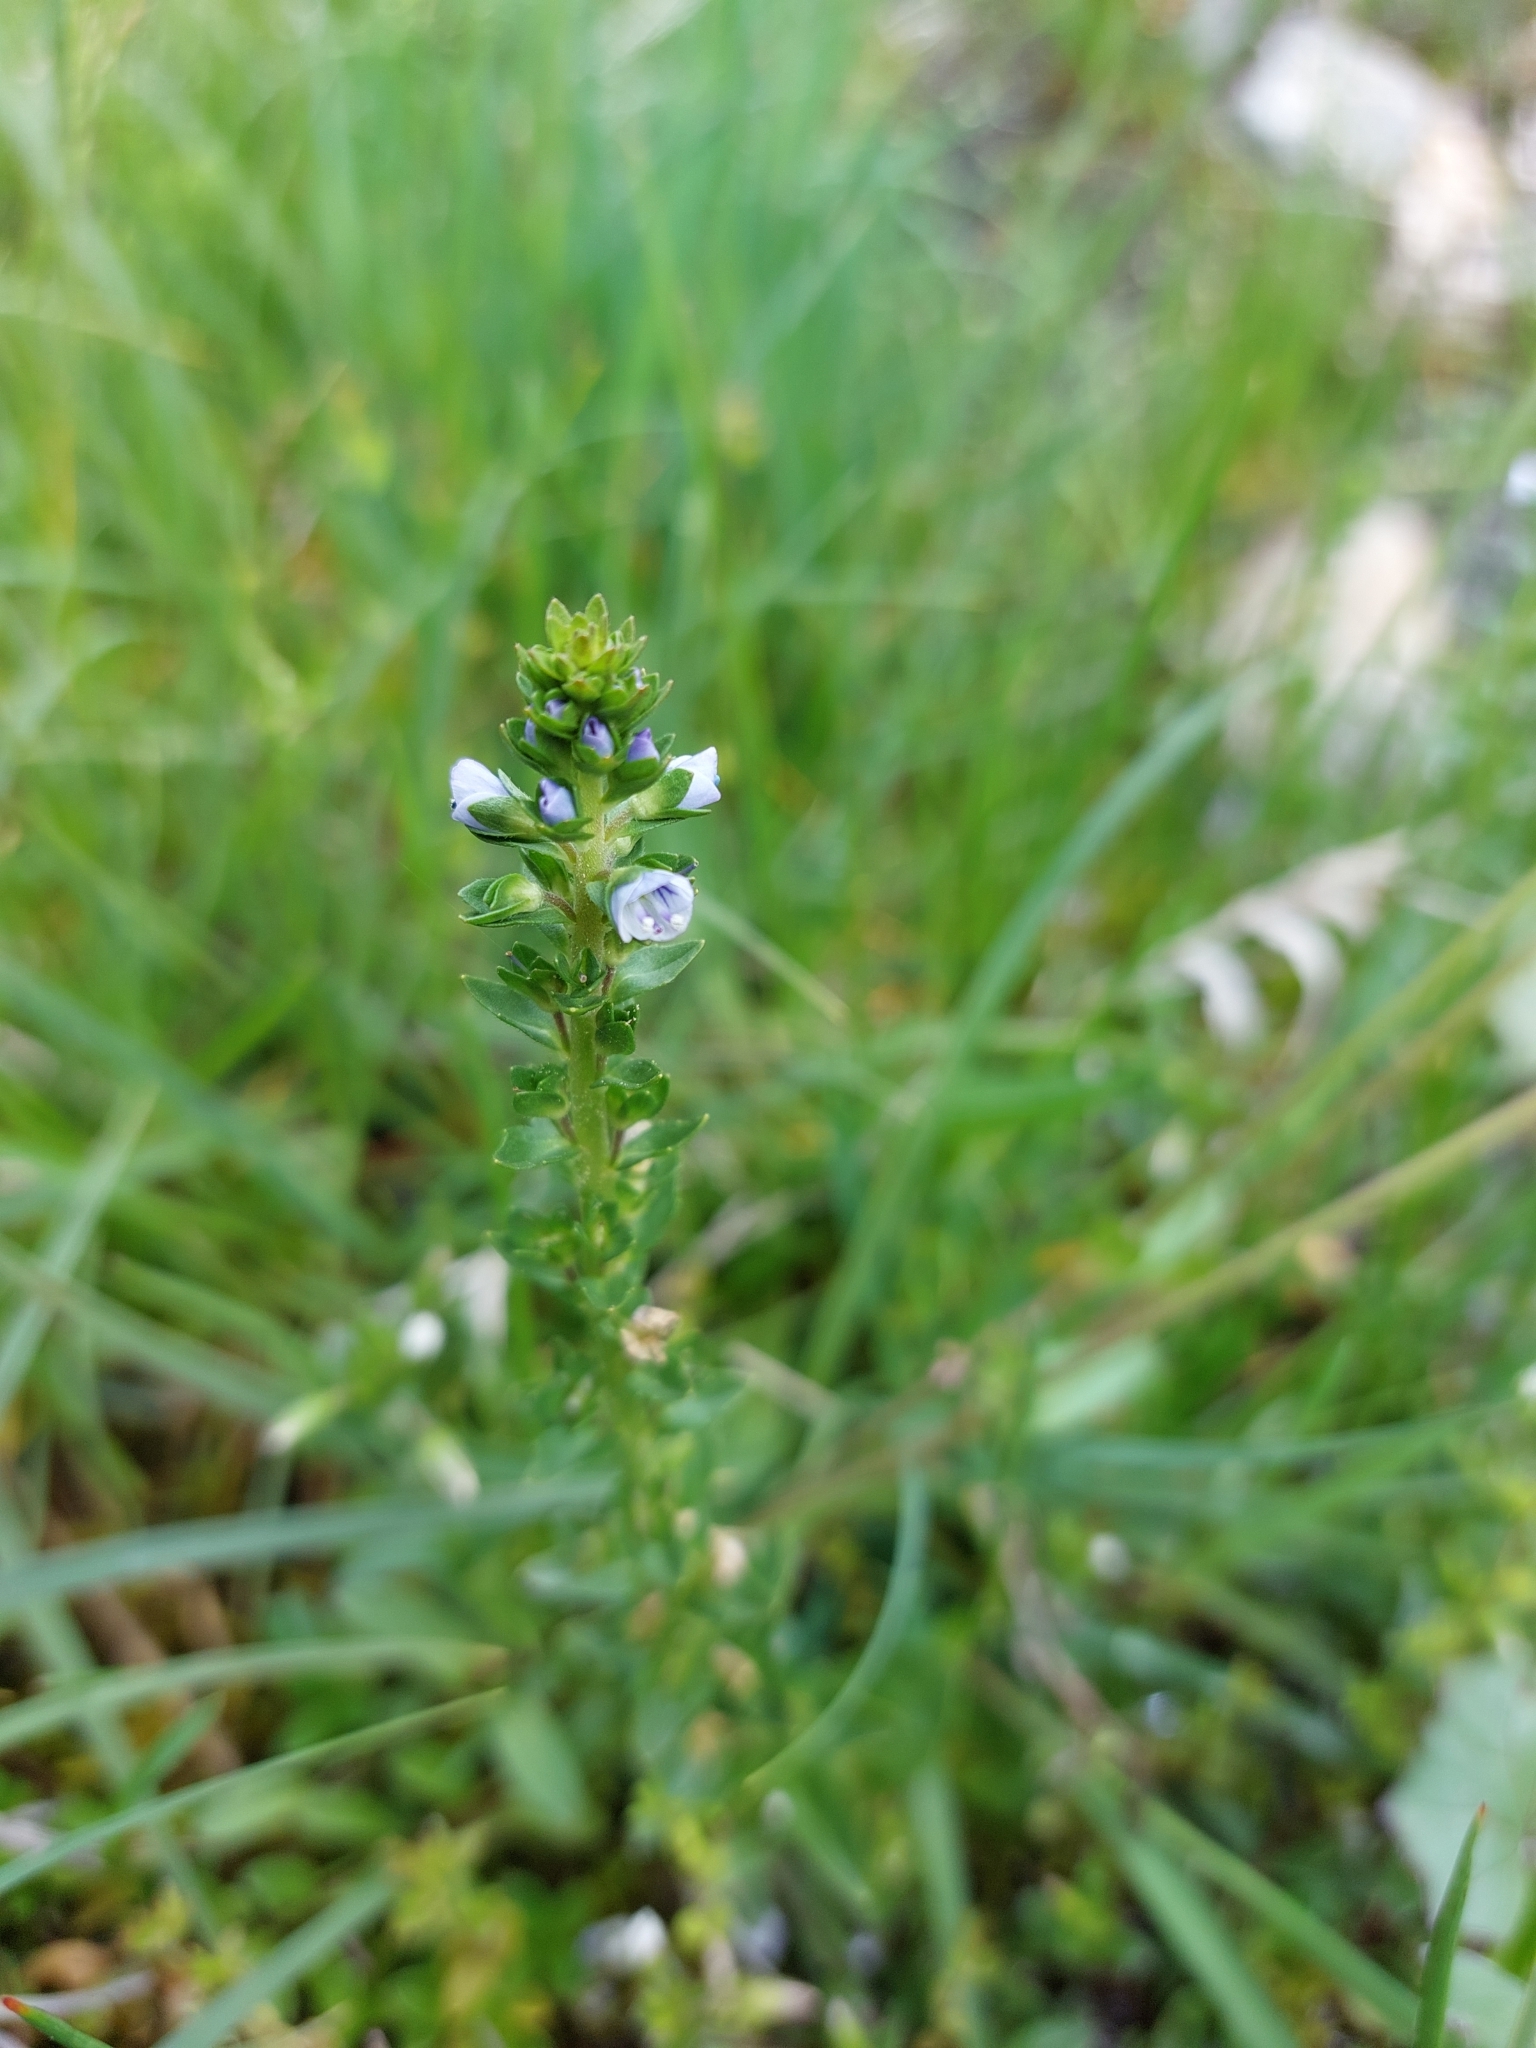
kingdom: Plantae
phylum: Tracheophyta
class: Magnoliopsida
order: Lamiales
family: Plantaginaceae
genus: Veronica
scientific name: Veronica serpyllifolia
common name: Thyme-leaved speedwell
